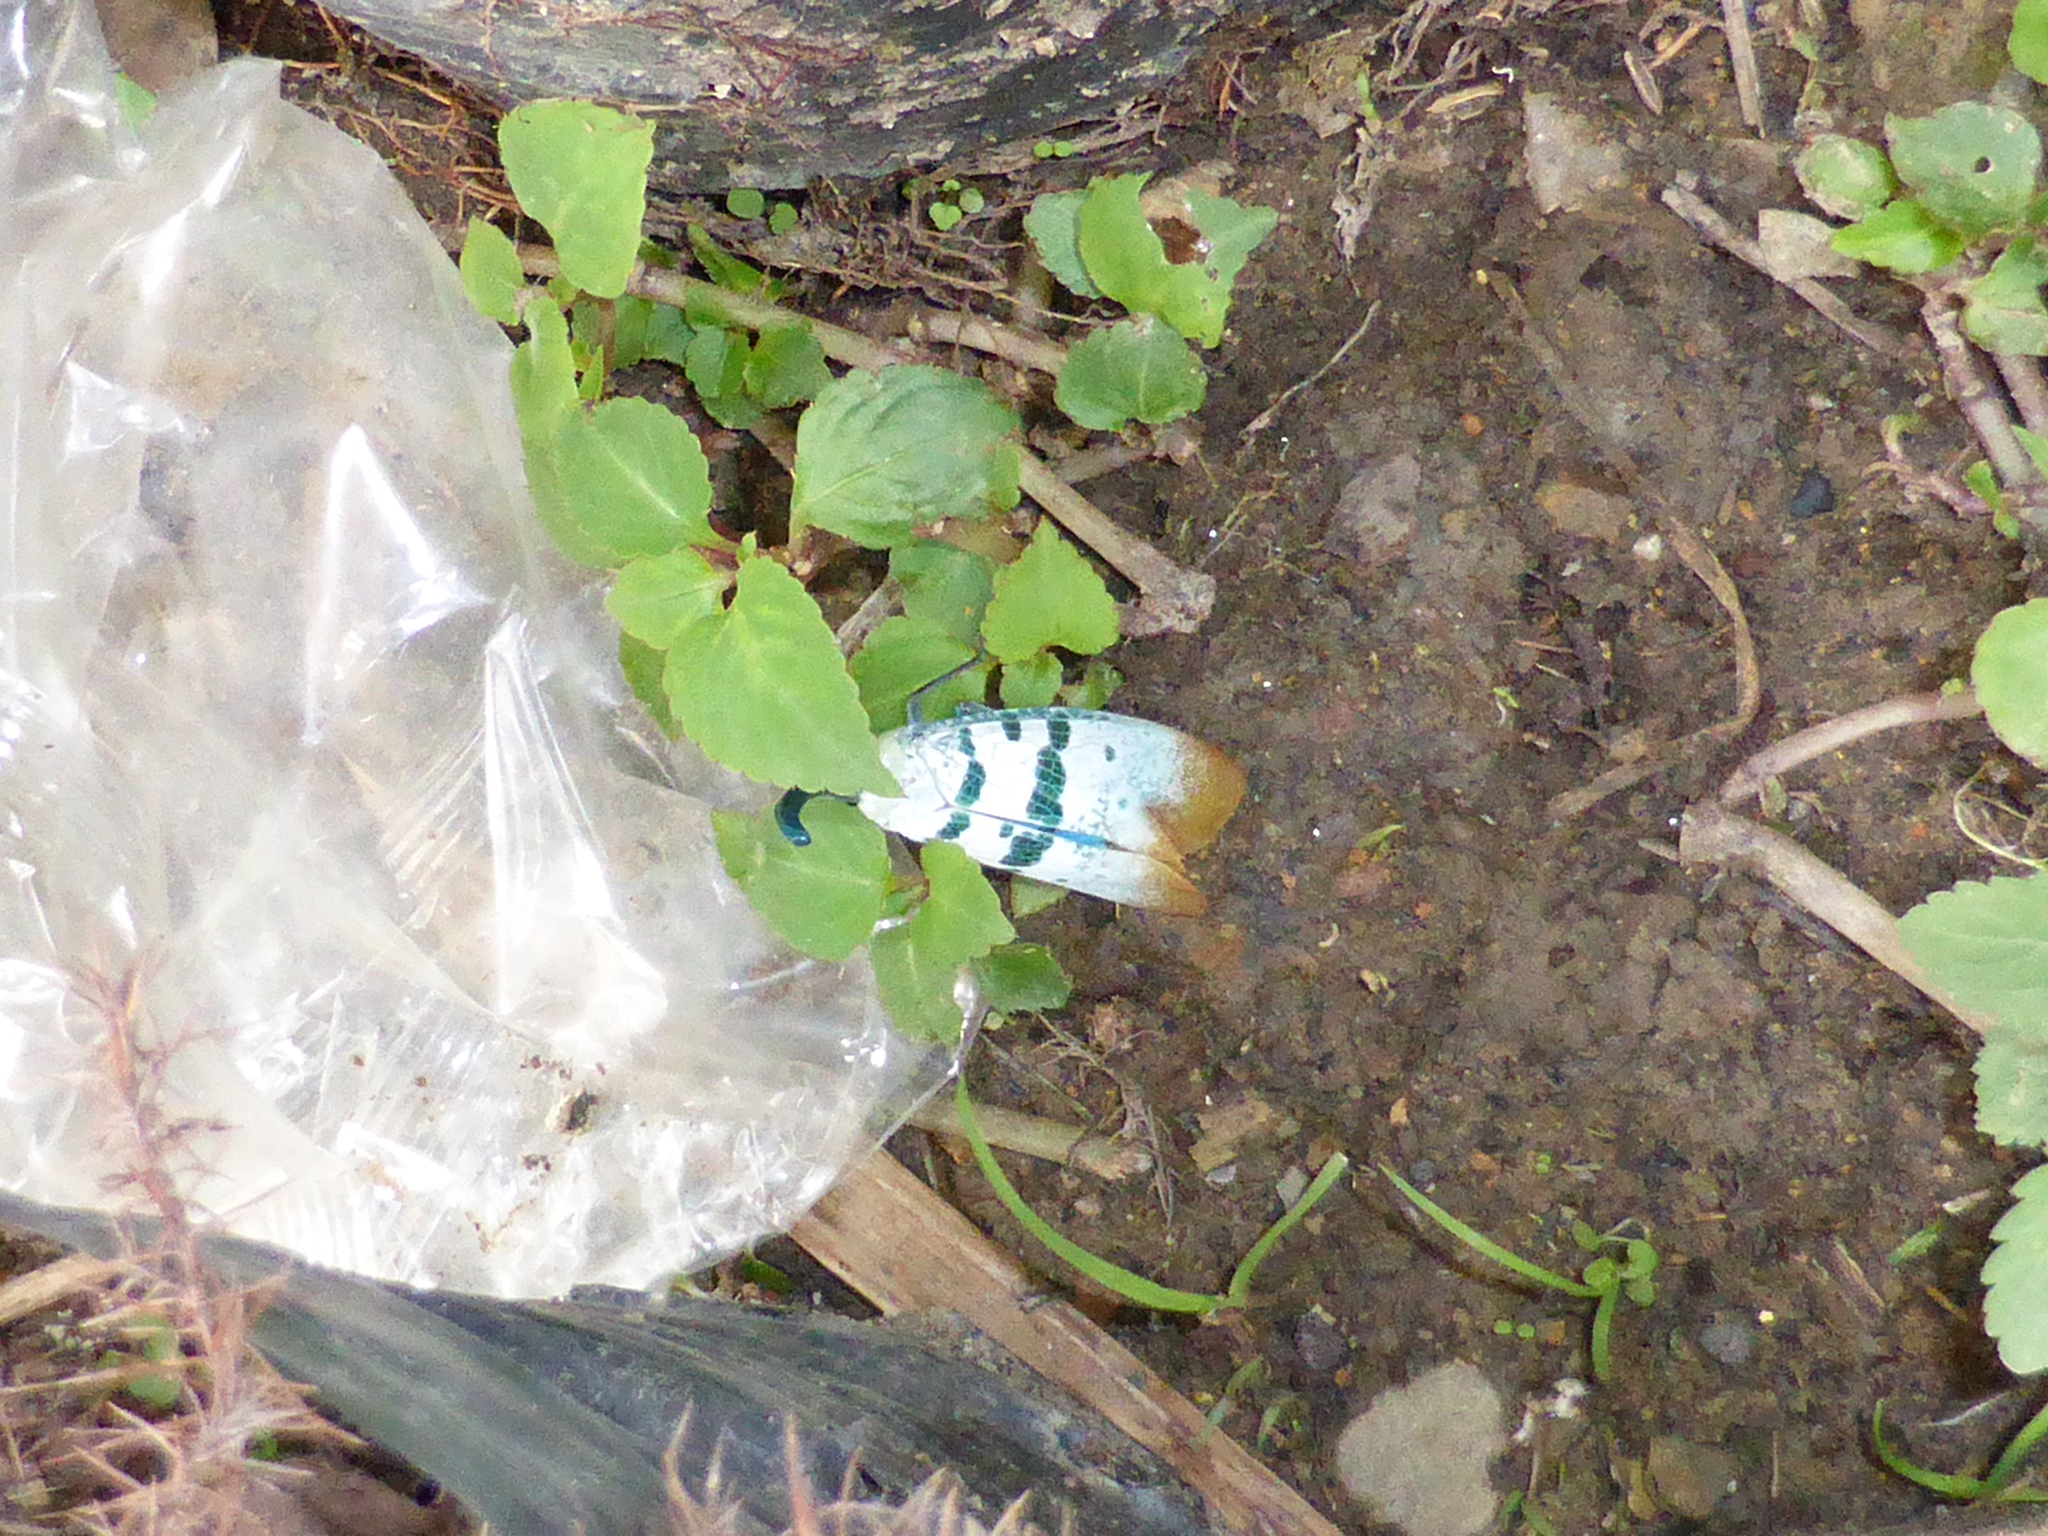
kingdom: Animalia
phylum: Arthropoda
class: Insecta
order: Hemiptera
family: Fulgoridae
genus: Pyrops
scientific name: Pyrops heringi
